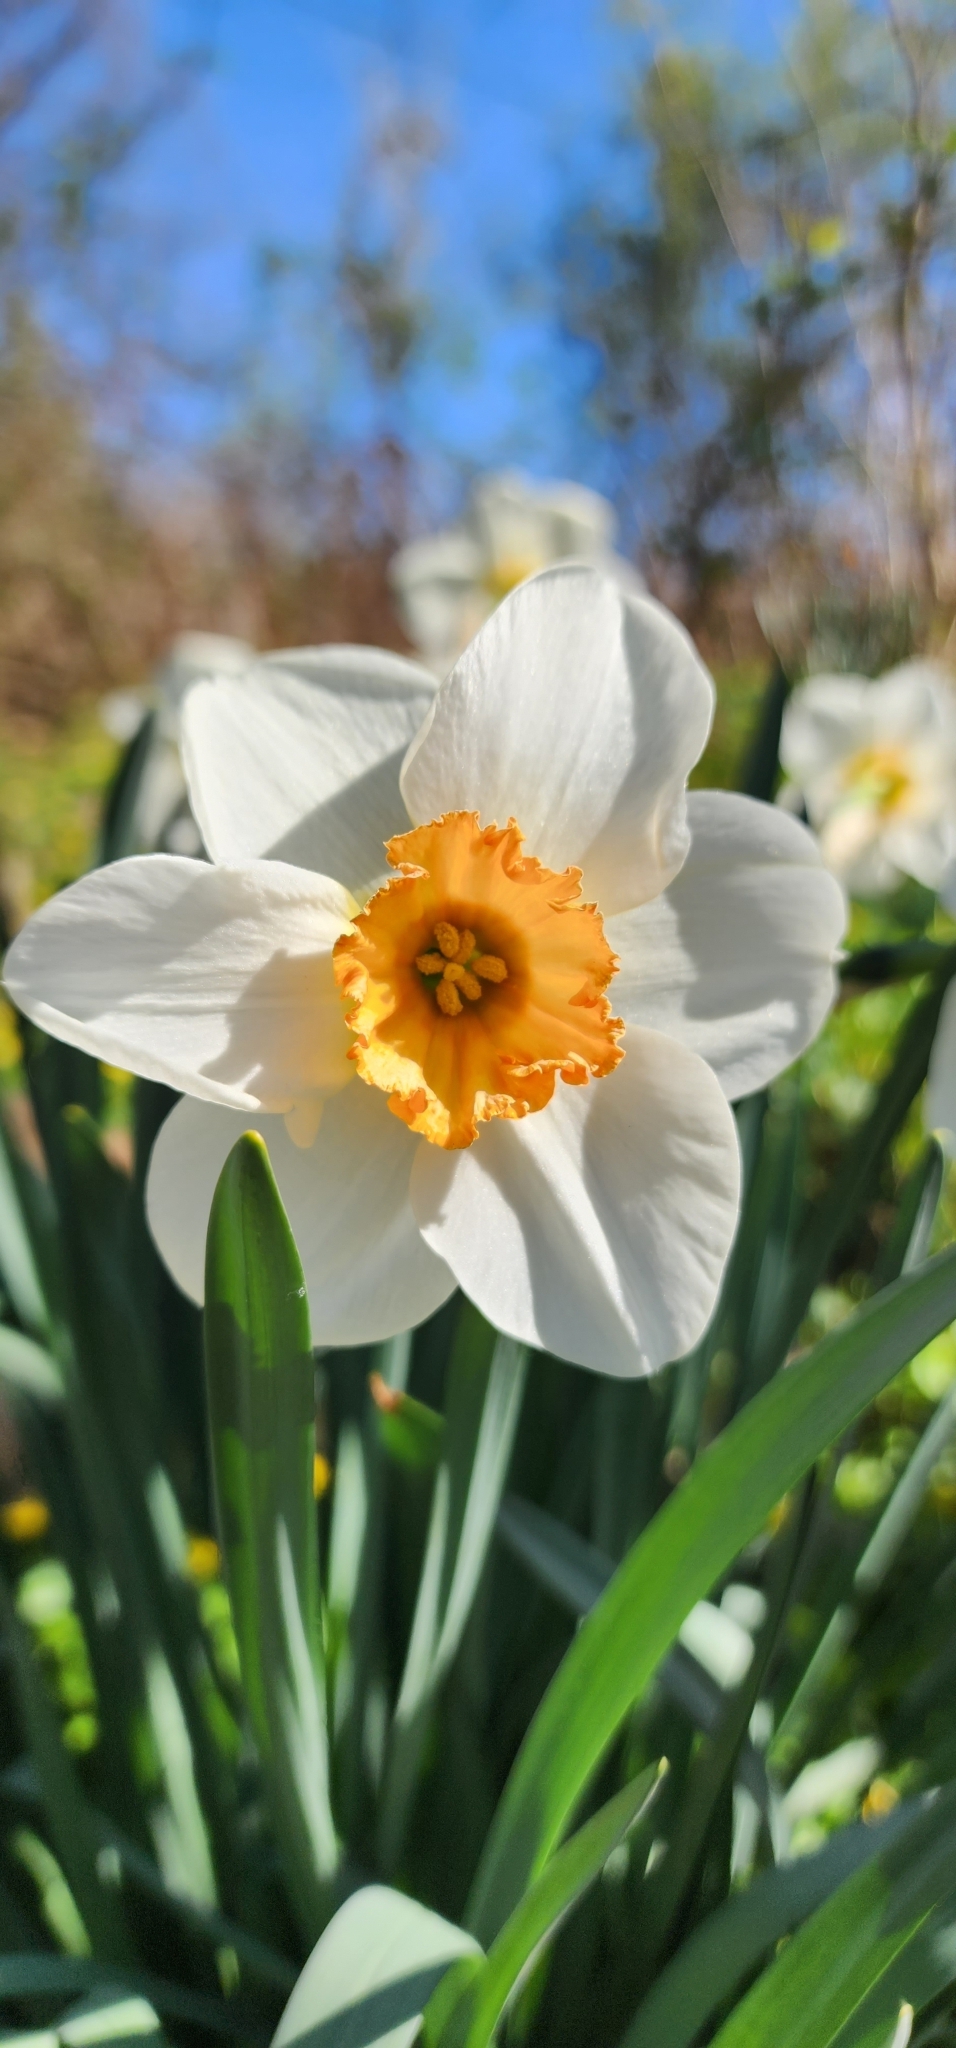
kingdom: Plantae
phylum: Tracheophyta
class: Liliopsida
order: Asparagales
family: Amaryllidaceae
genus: Narcissus
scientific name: Narcissus
